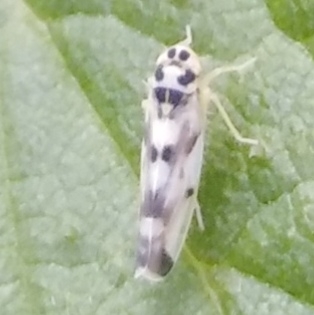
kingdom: Animalia
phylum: Arthropoda
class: Insecta
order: Hemiptera
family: Cicadellidae
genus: Eupteryx
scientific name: Eupteryx aurata
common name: Leafhopper
